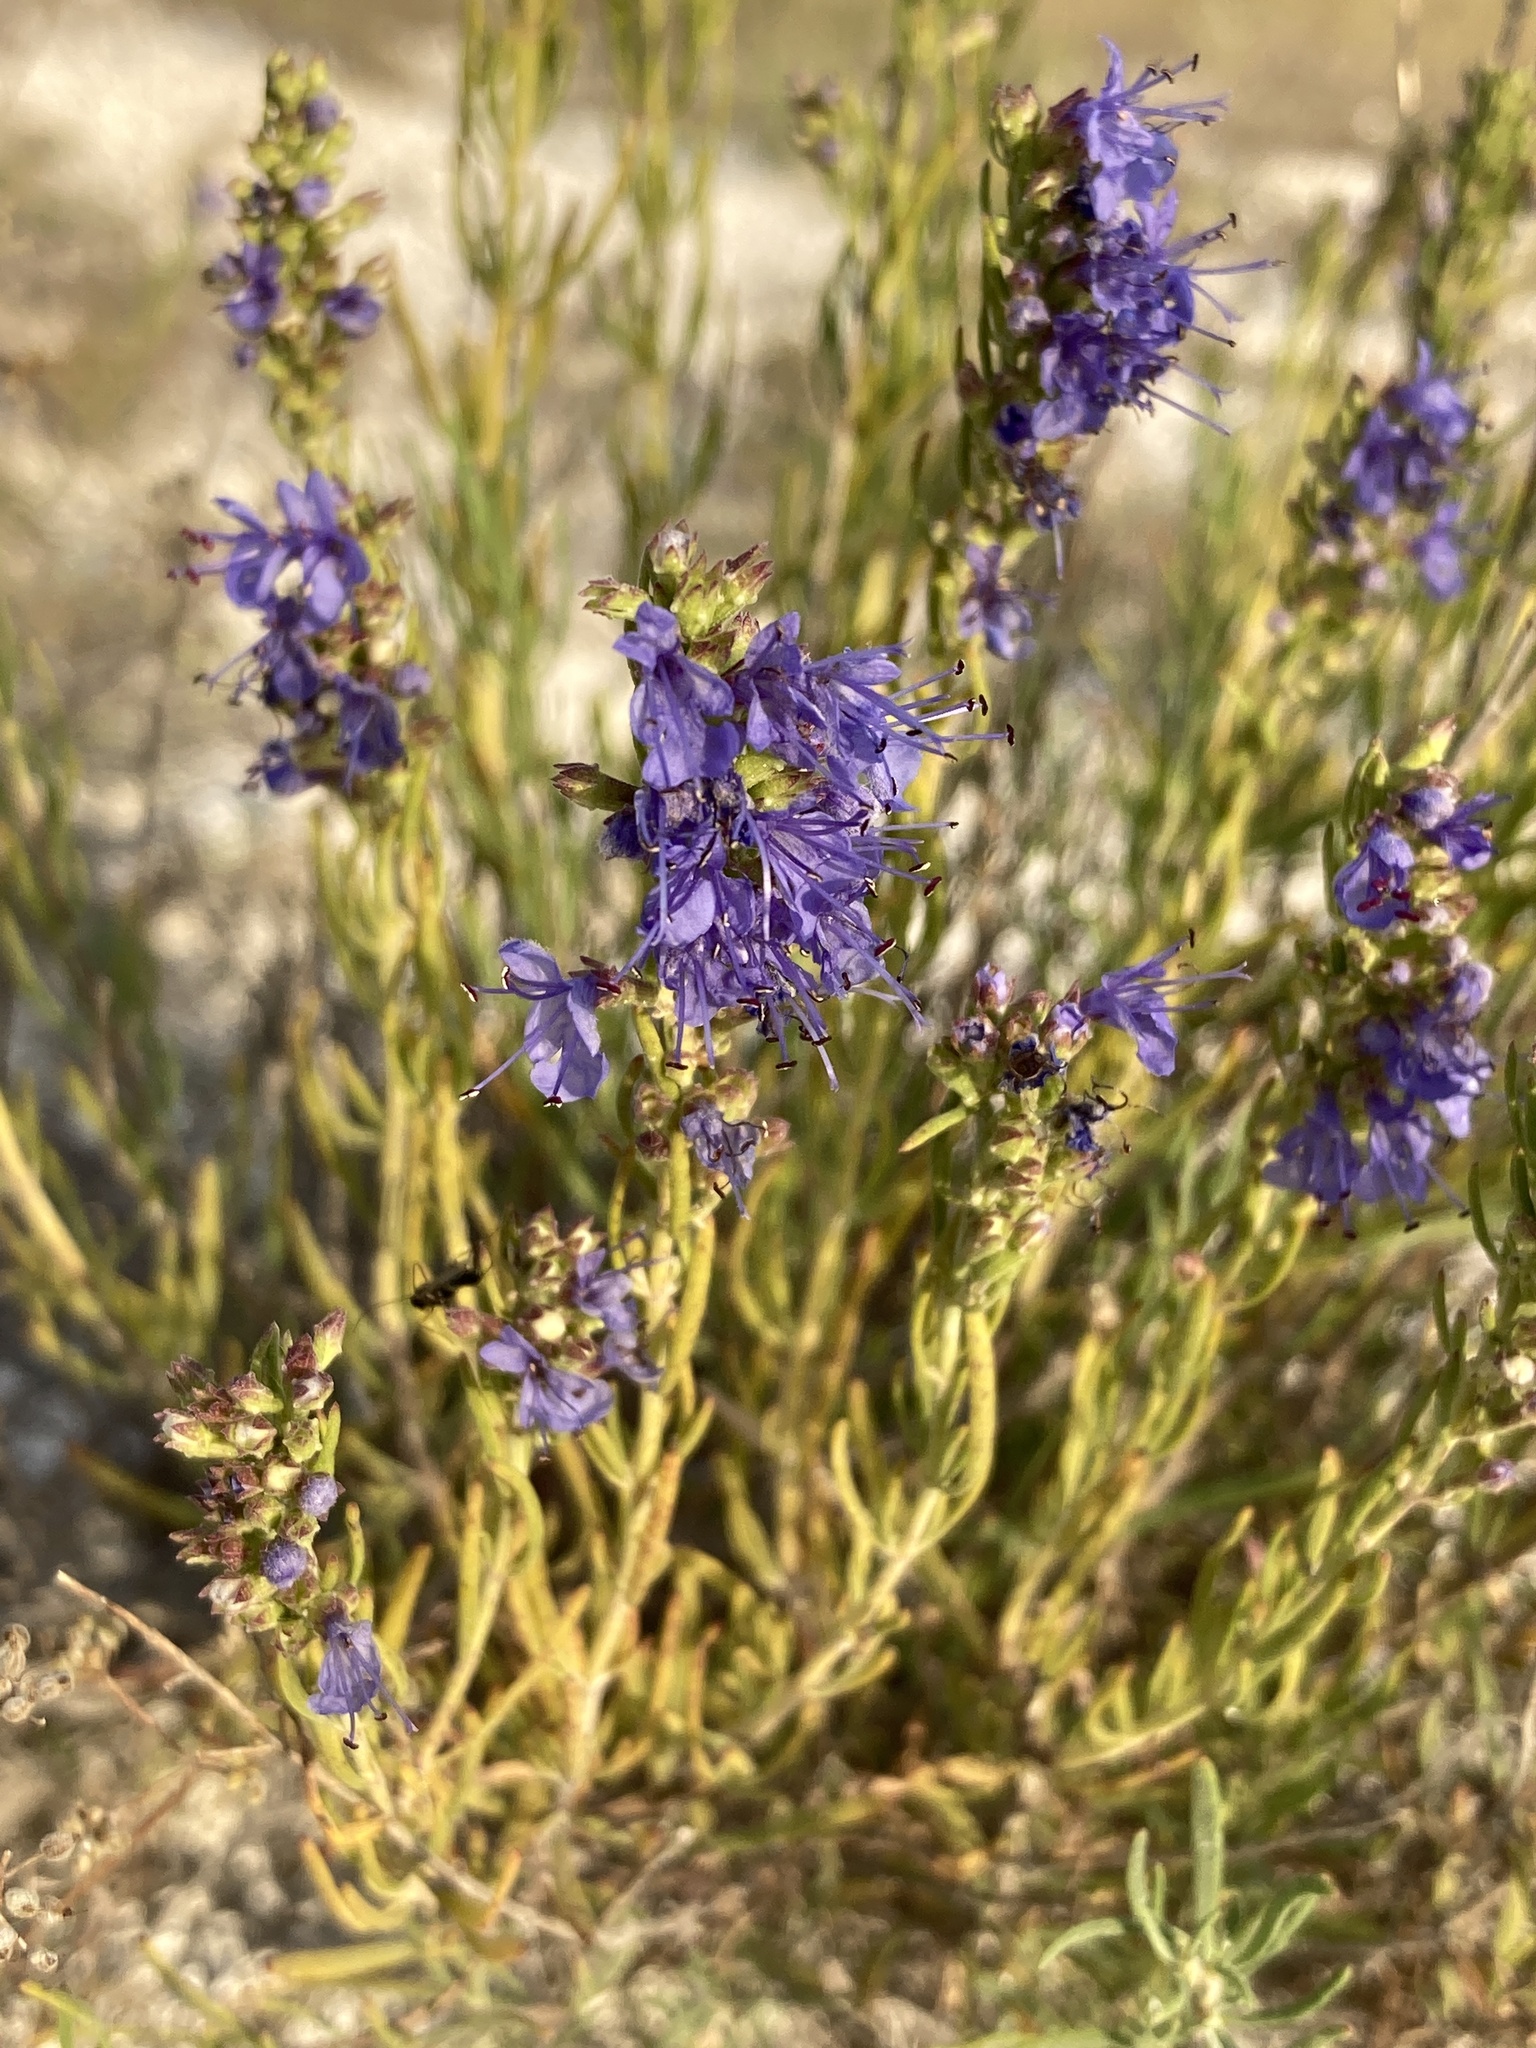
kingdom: Plantae
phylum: Tracheophyta
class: Magnoliopsida
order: Lamiales
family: Lamiaceae
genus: Hyssopus
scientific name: Hyssopus officinalis
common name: Hyssop
